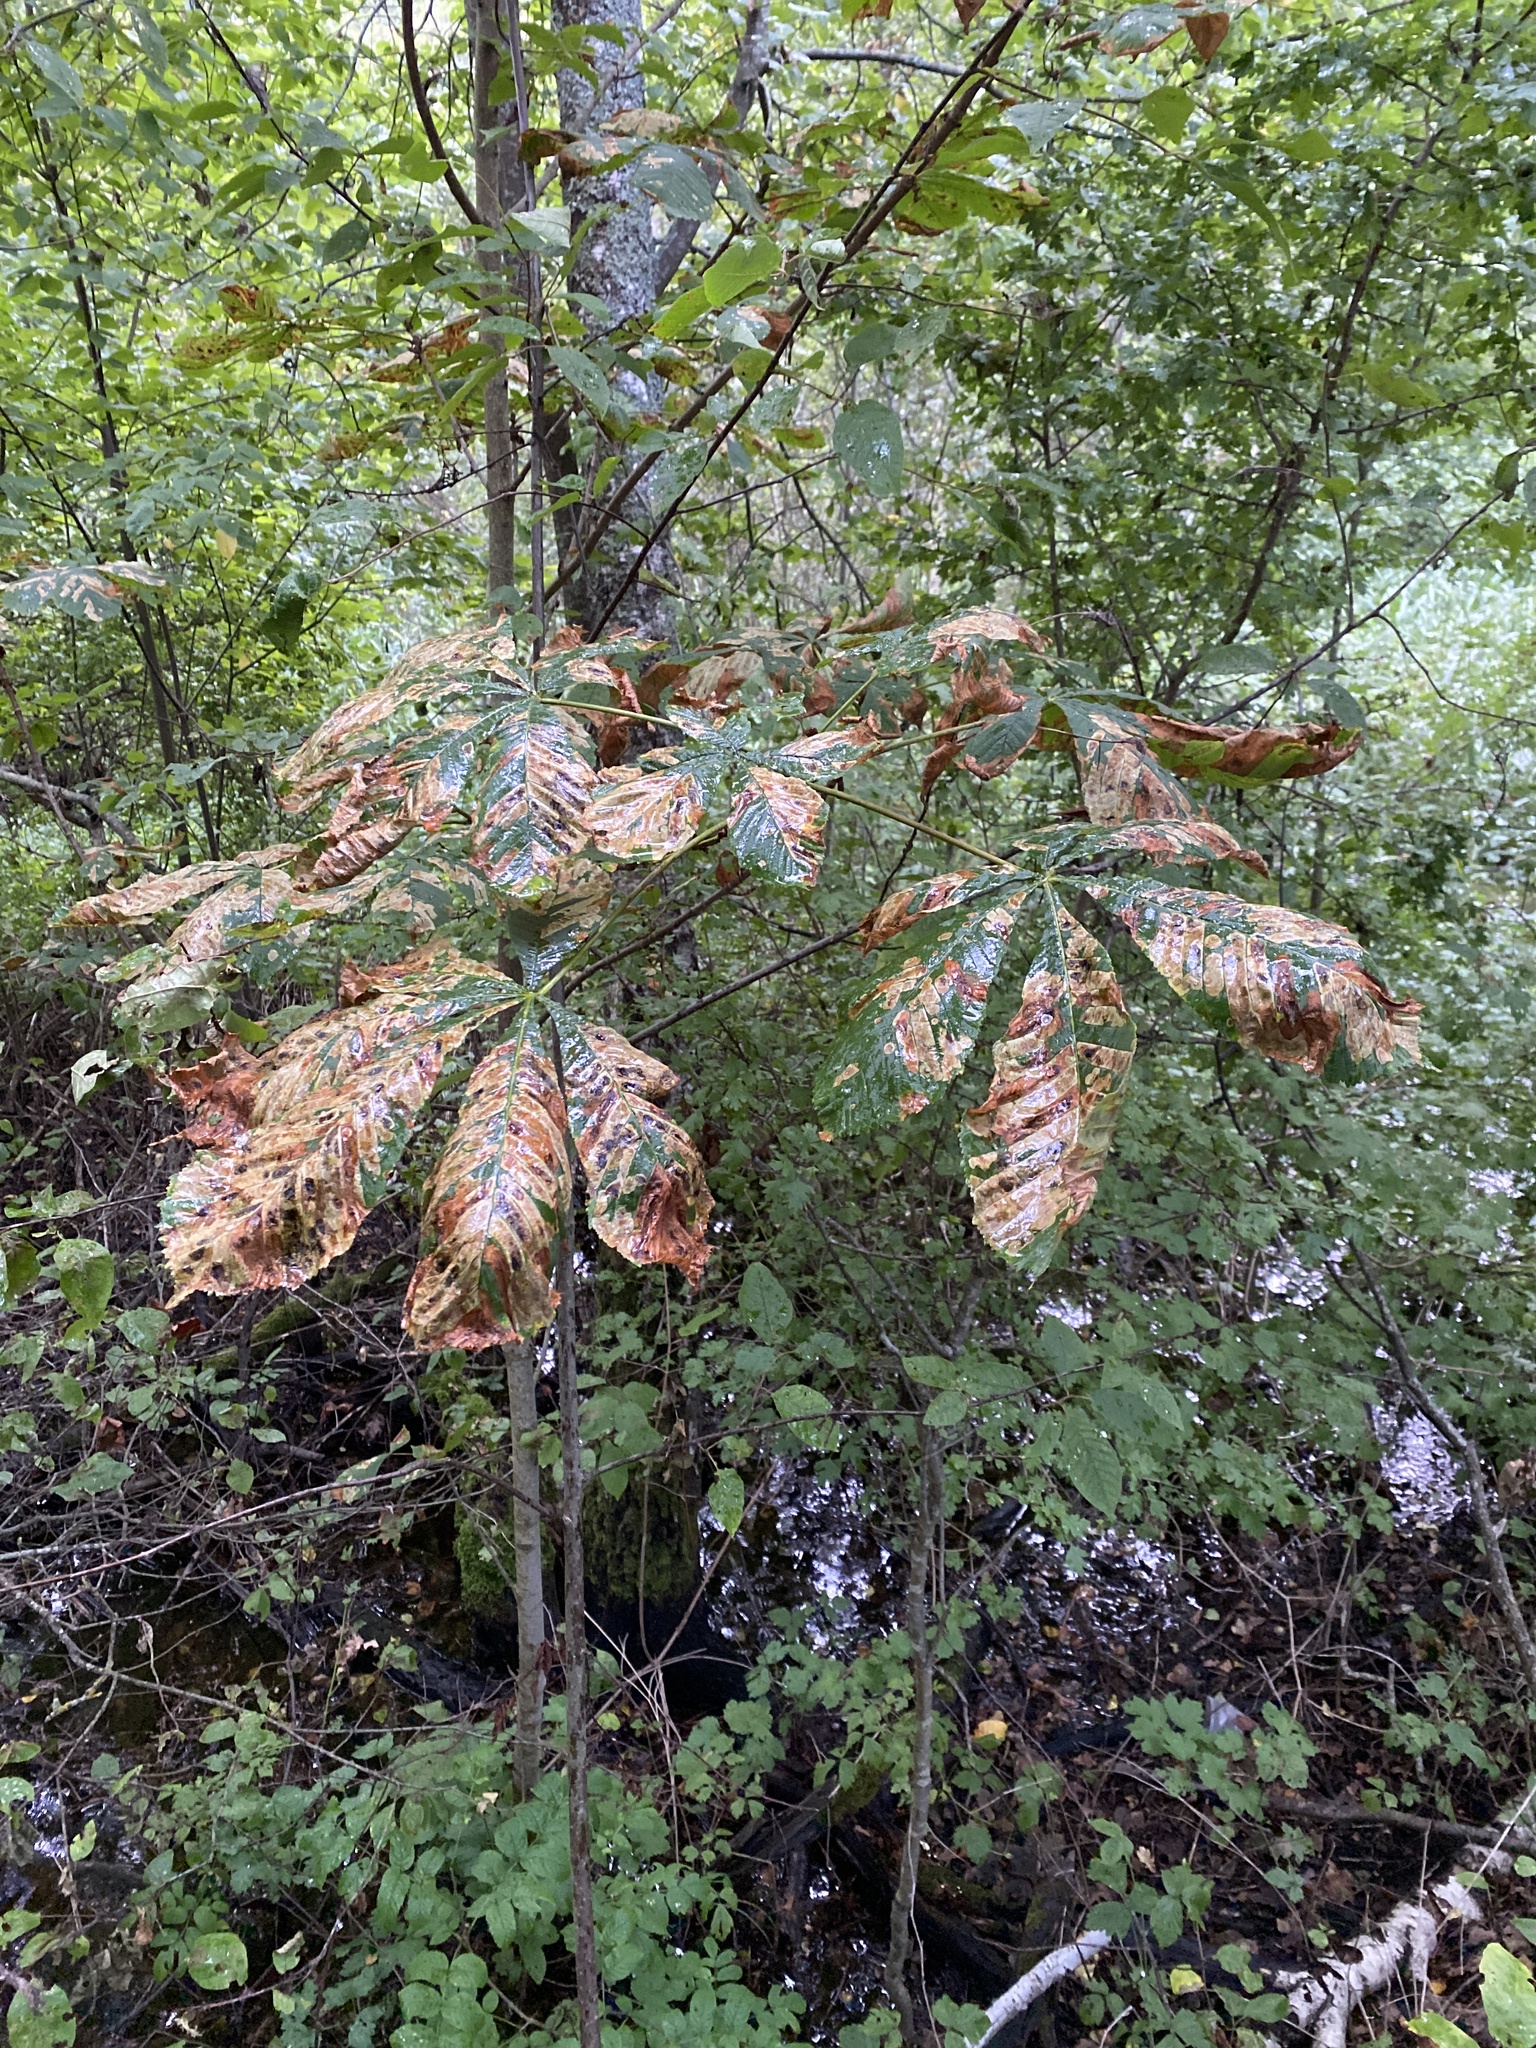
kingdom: Animalia
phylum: Arthropoda
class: Insecta
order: Lepidoptera
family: Gracillariidae
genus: Cameraria
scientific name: Cameraria ohridella
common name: Horse-chestnut leaf-miner
